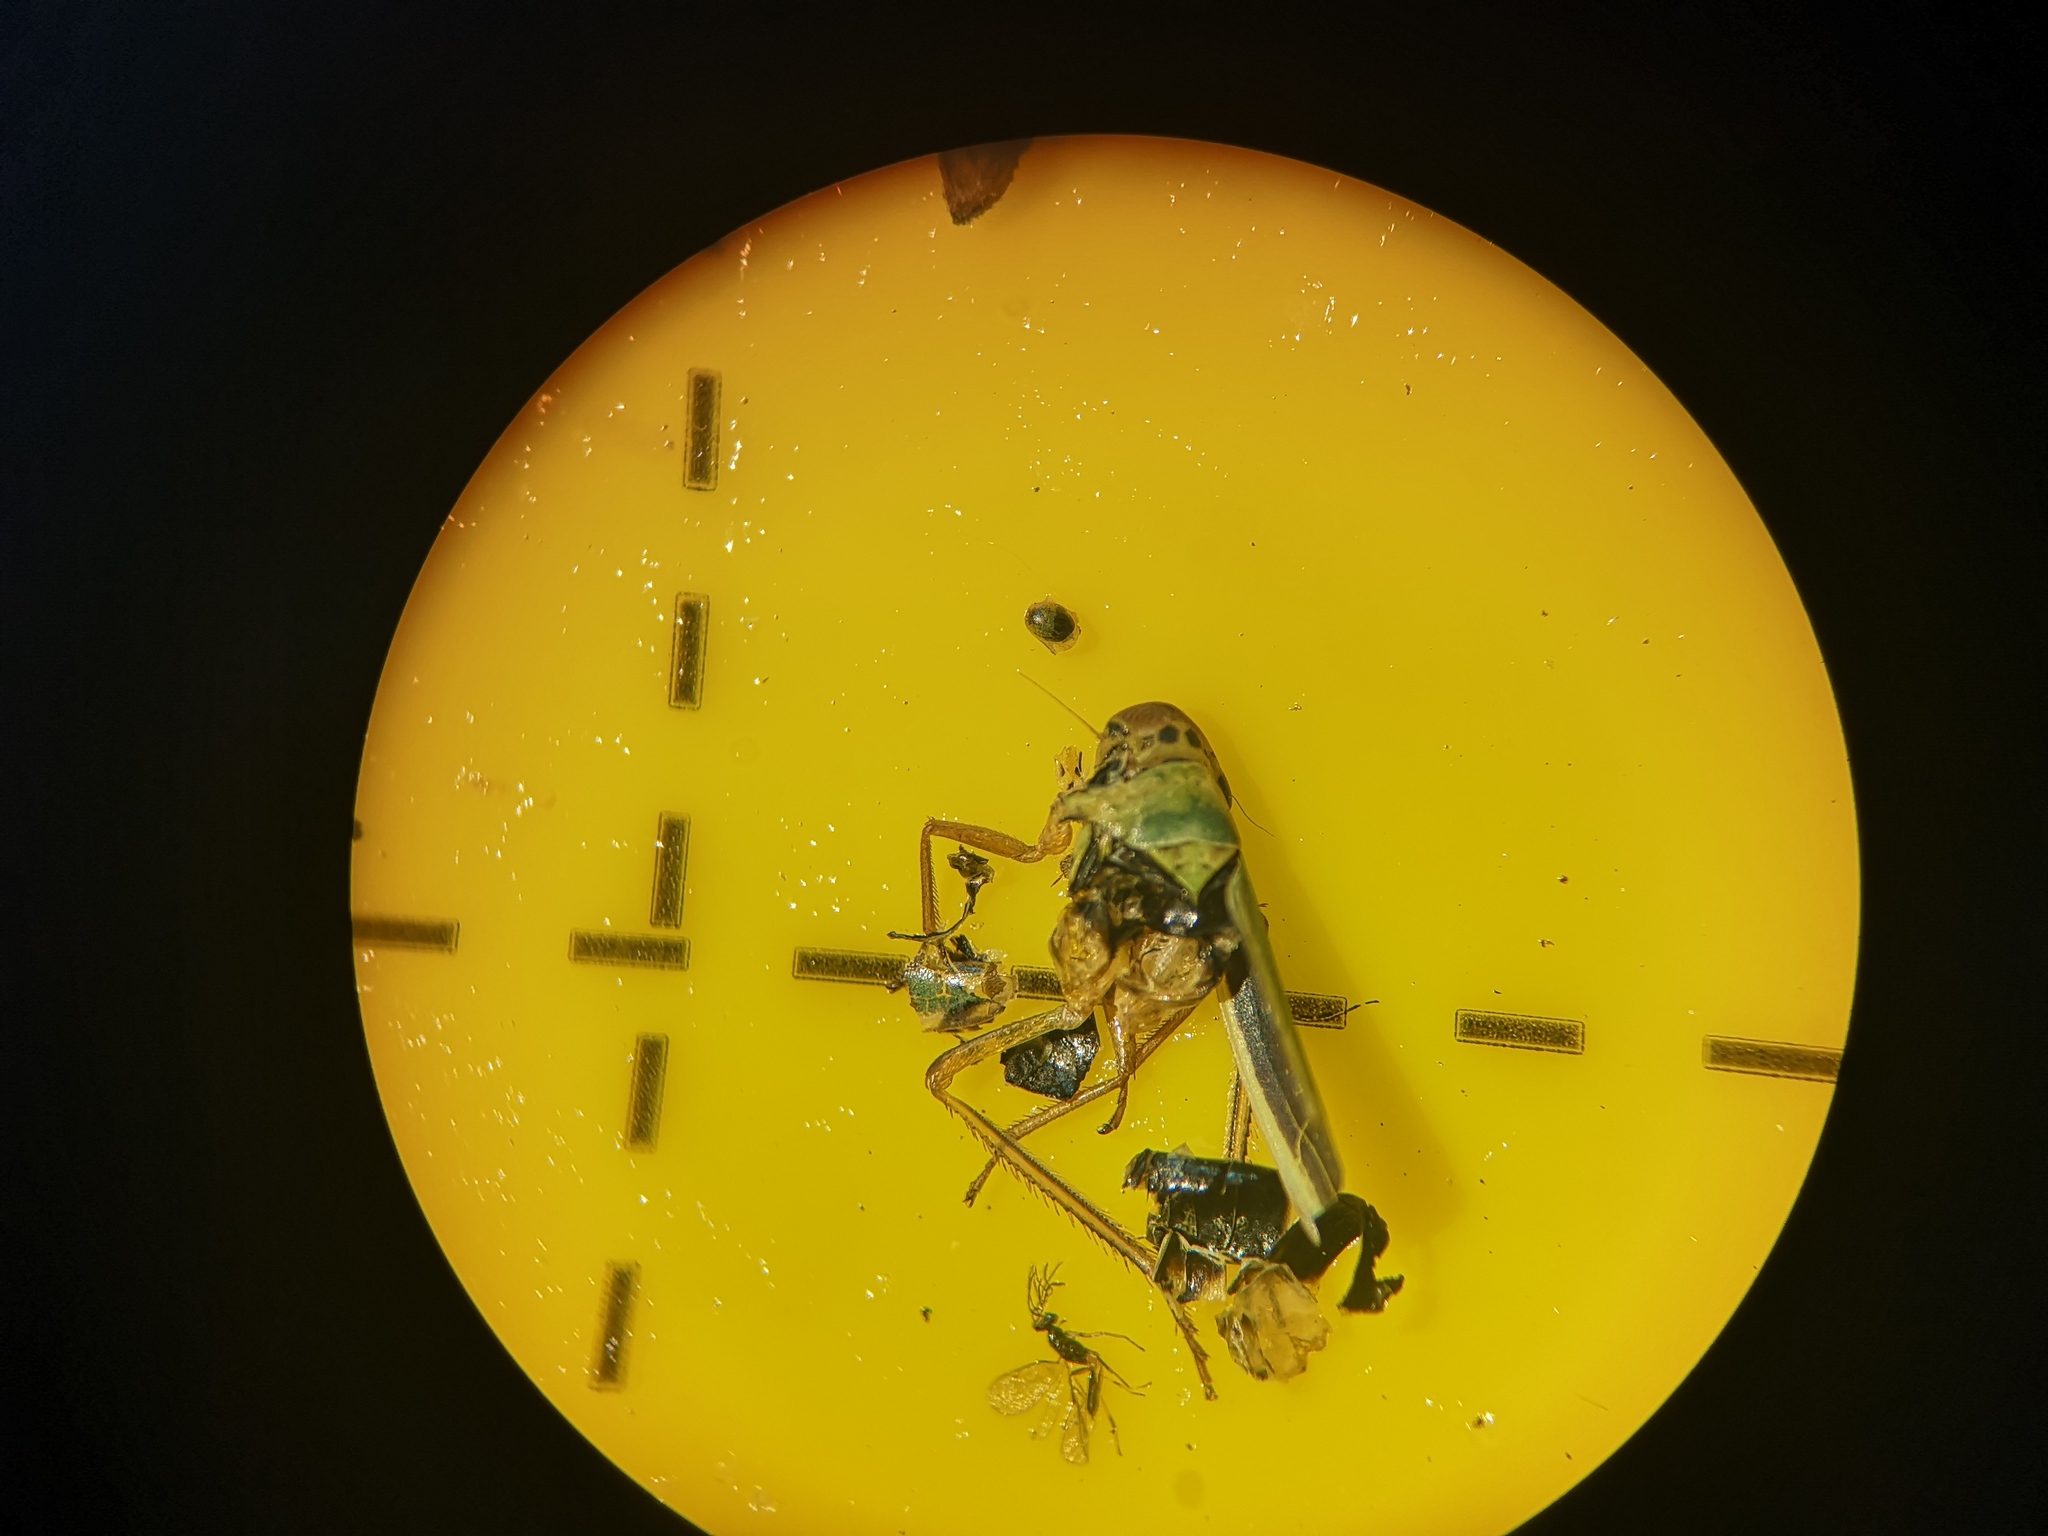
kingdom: Animalia
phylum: Arthropoda
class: Insecta
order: Hemiptera
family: Cicadellidae
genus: Cicadella
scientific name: Cicadella viridis
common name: Leafhopper
